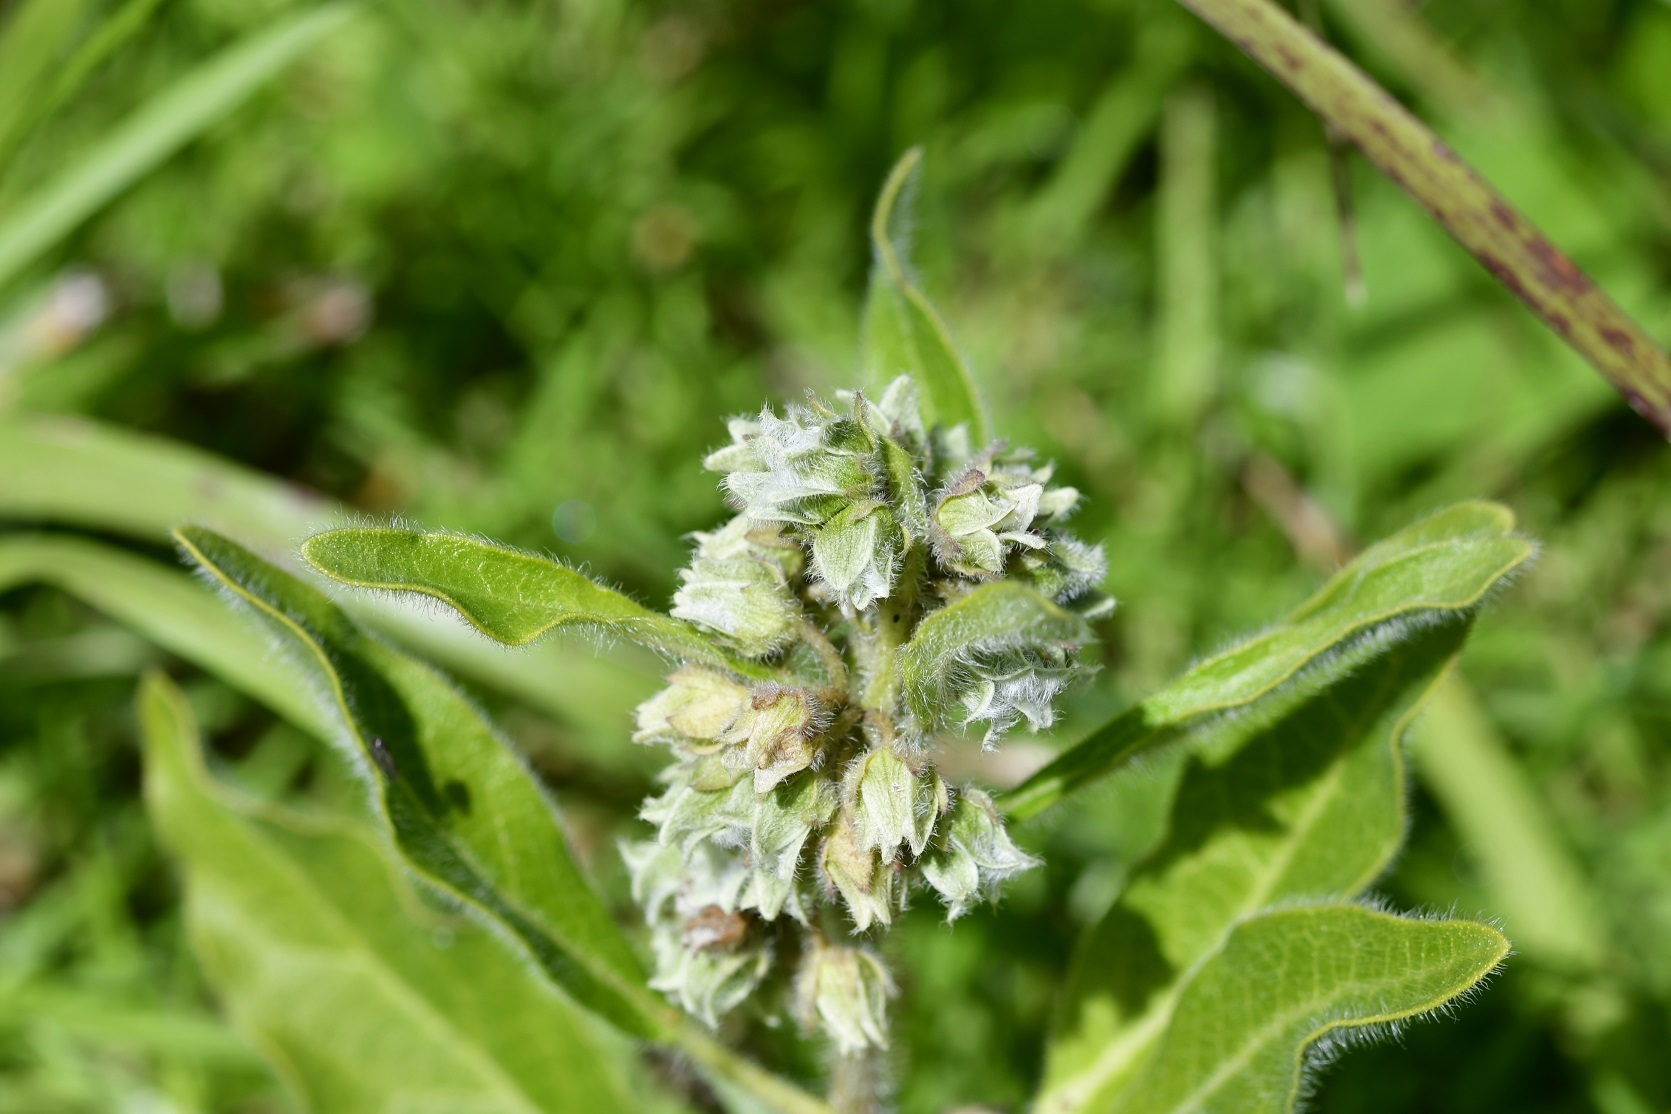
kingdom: Plantae
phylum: Tracheophyta
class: Magnoliopsida
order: Gentianales
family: Apocynaceae
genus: Pherotrichis
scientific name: Pherotrichis villosa
